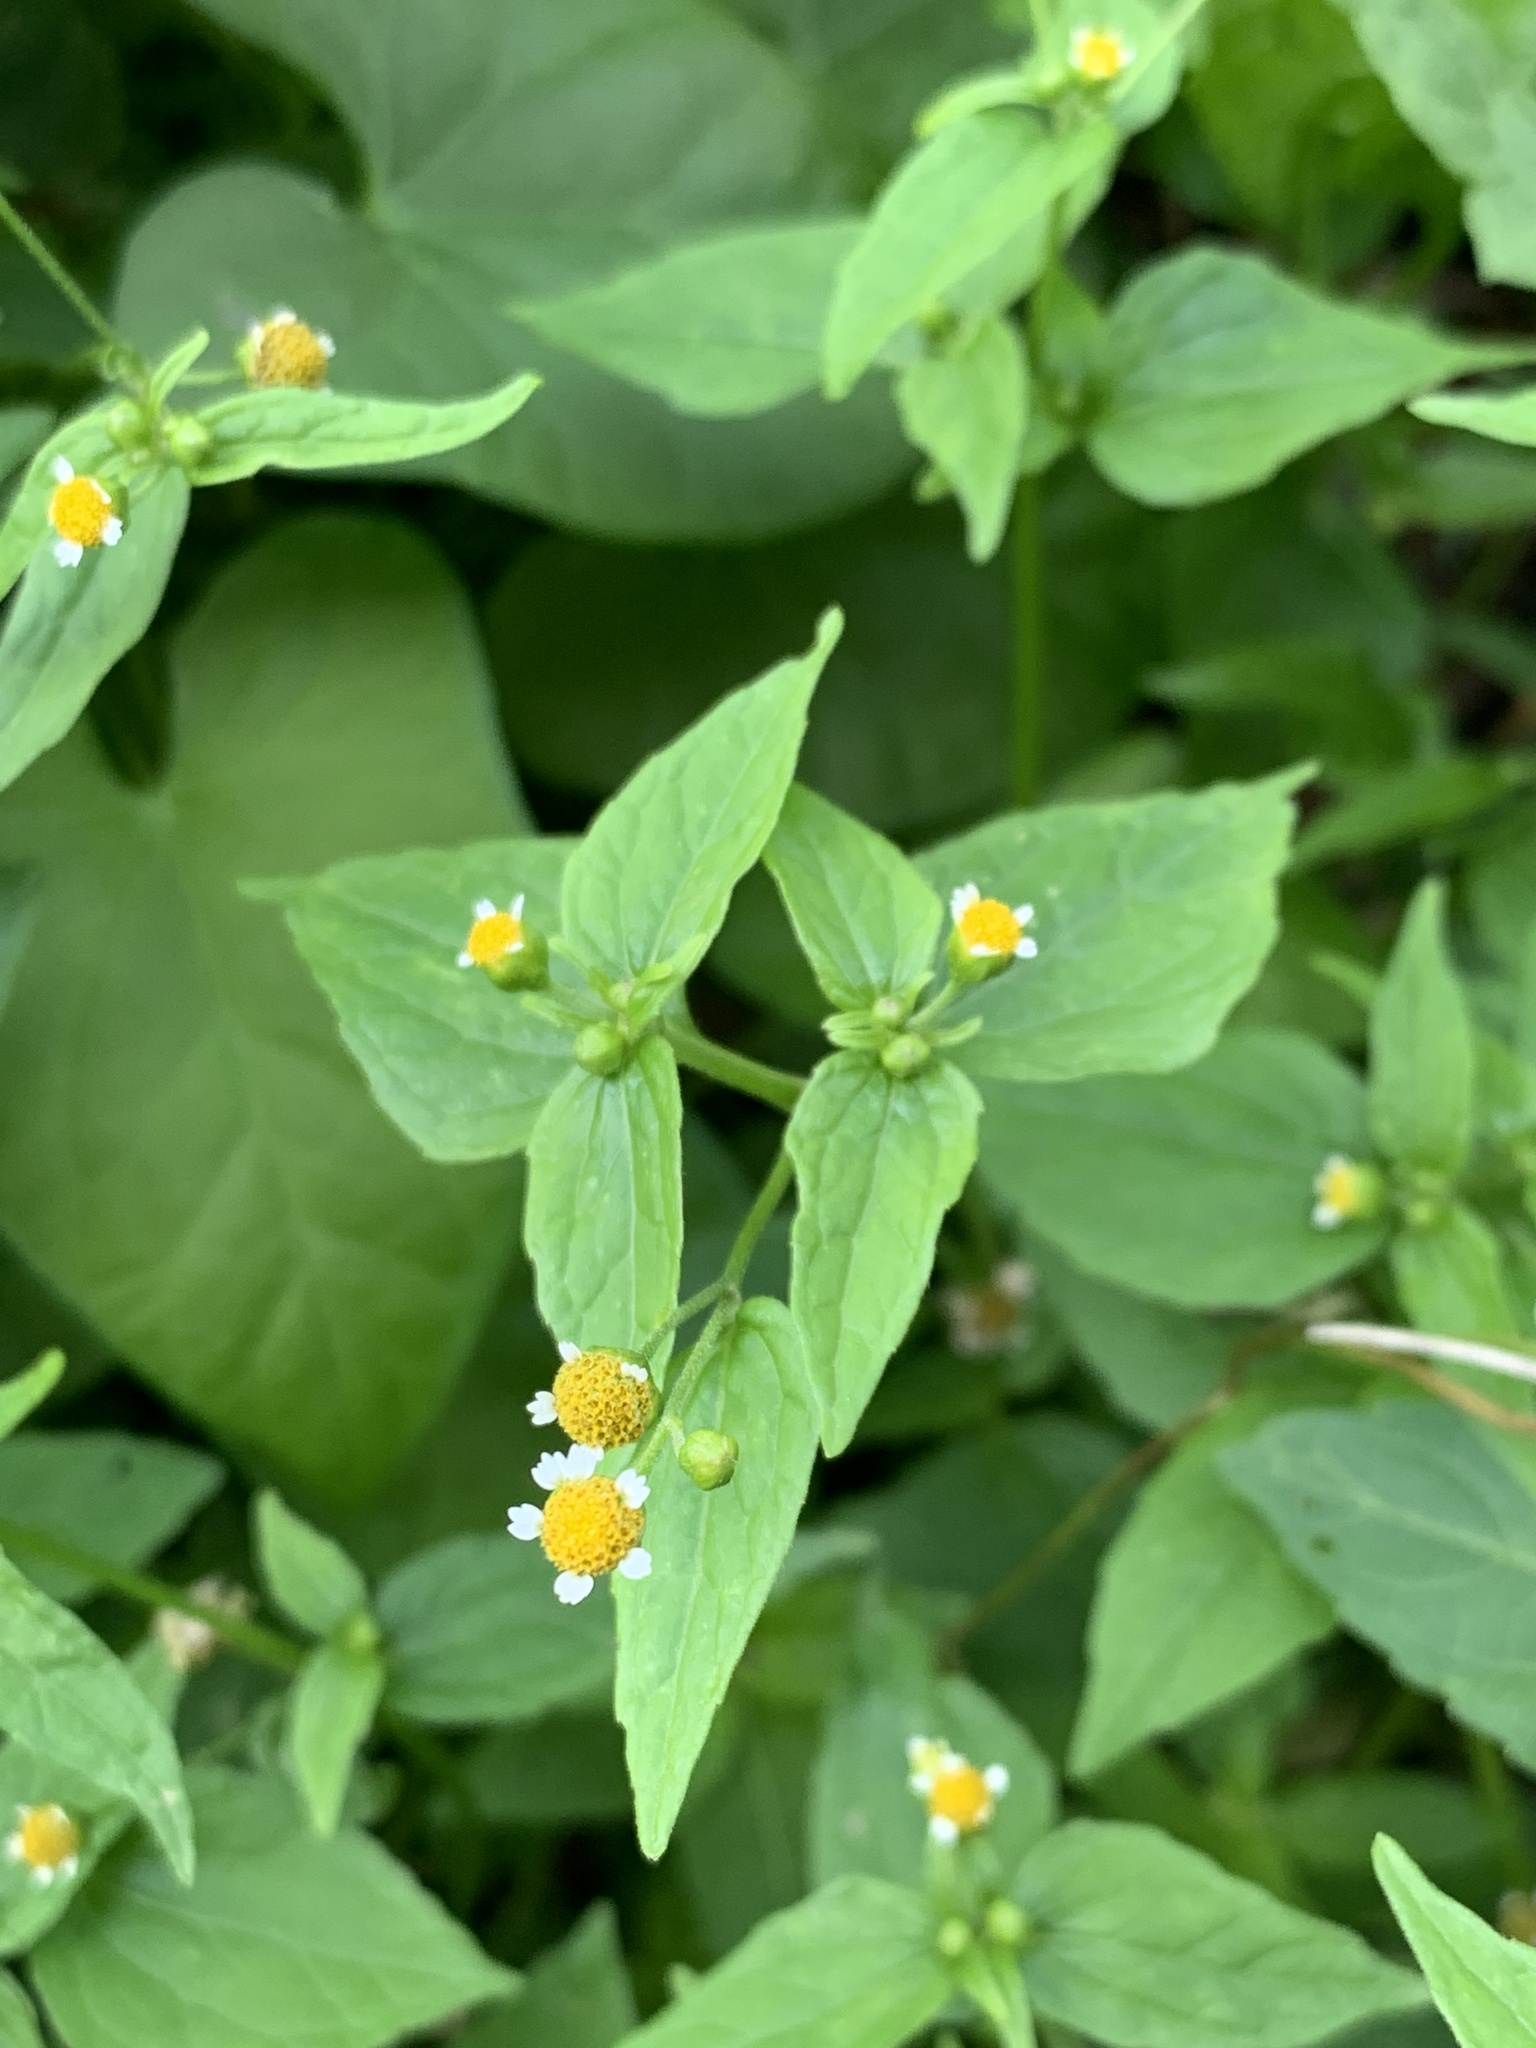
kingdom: Plantae
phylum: Tracheophyta
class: Magnoliopsida
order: Asterales
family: Asteraceae
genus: Galinsoga
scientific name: Galinsoga parviflora
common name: Gallant soldier
